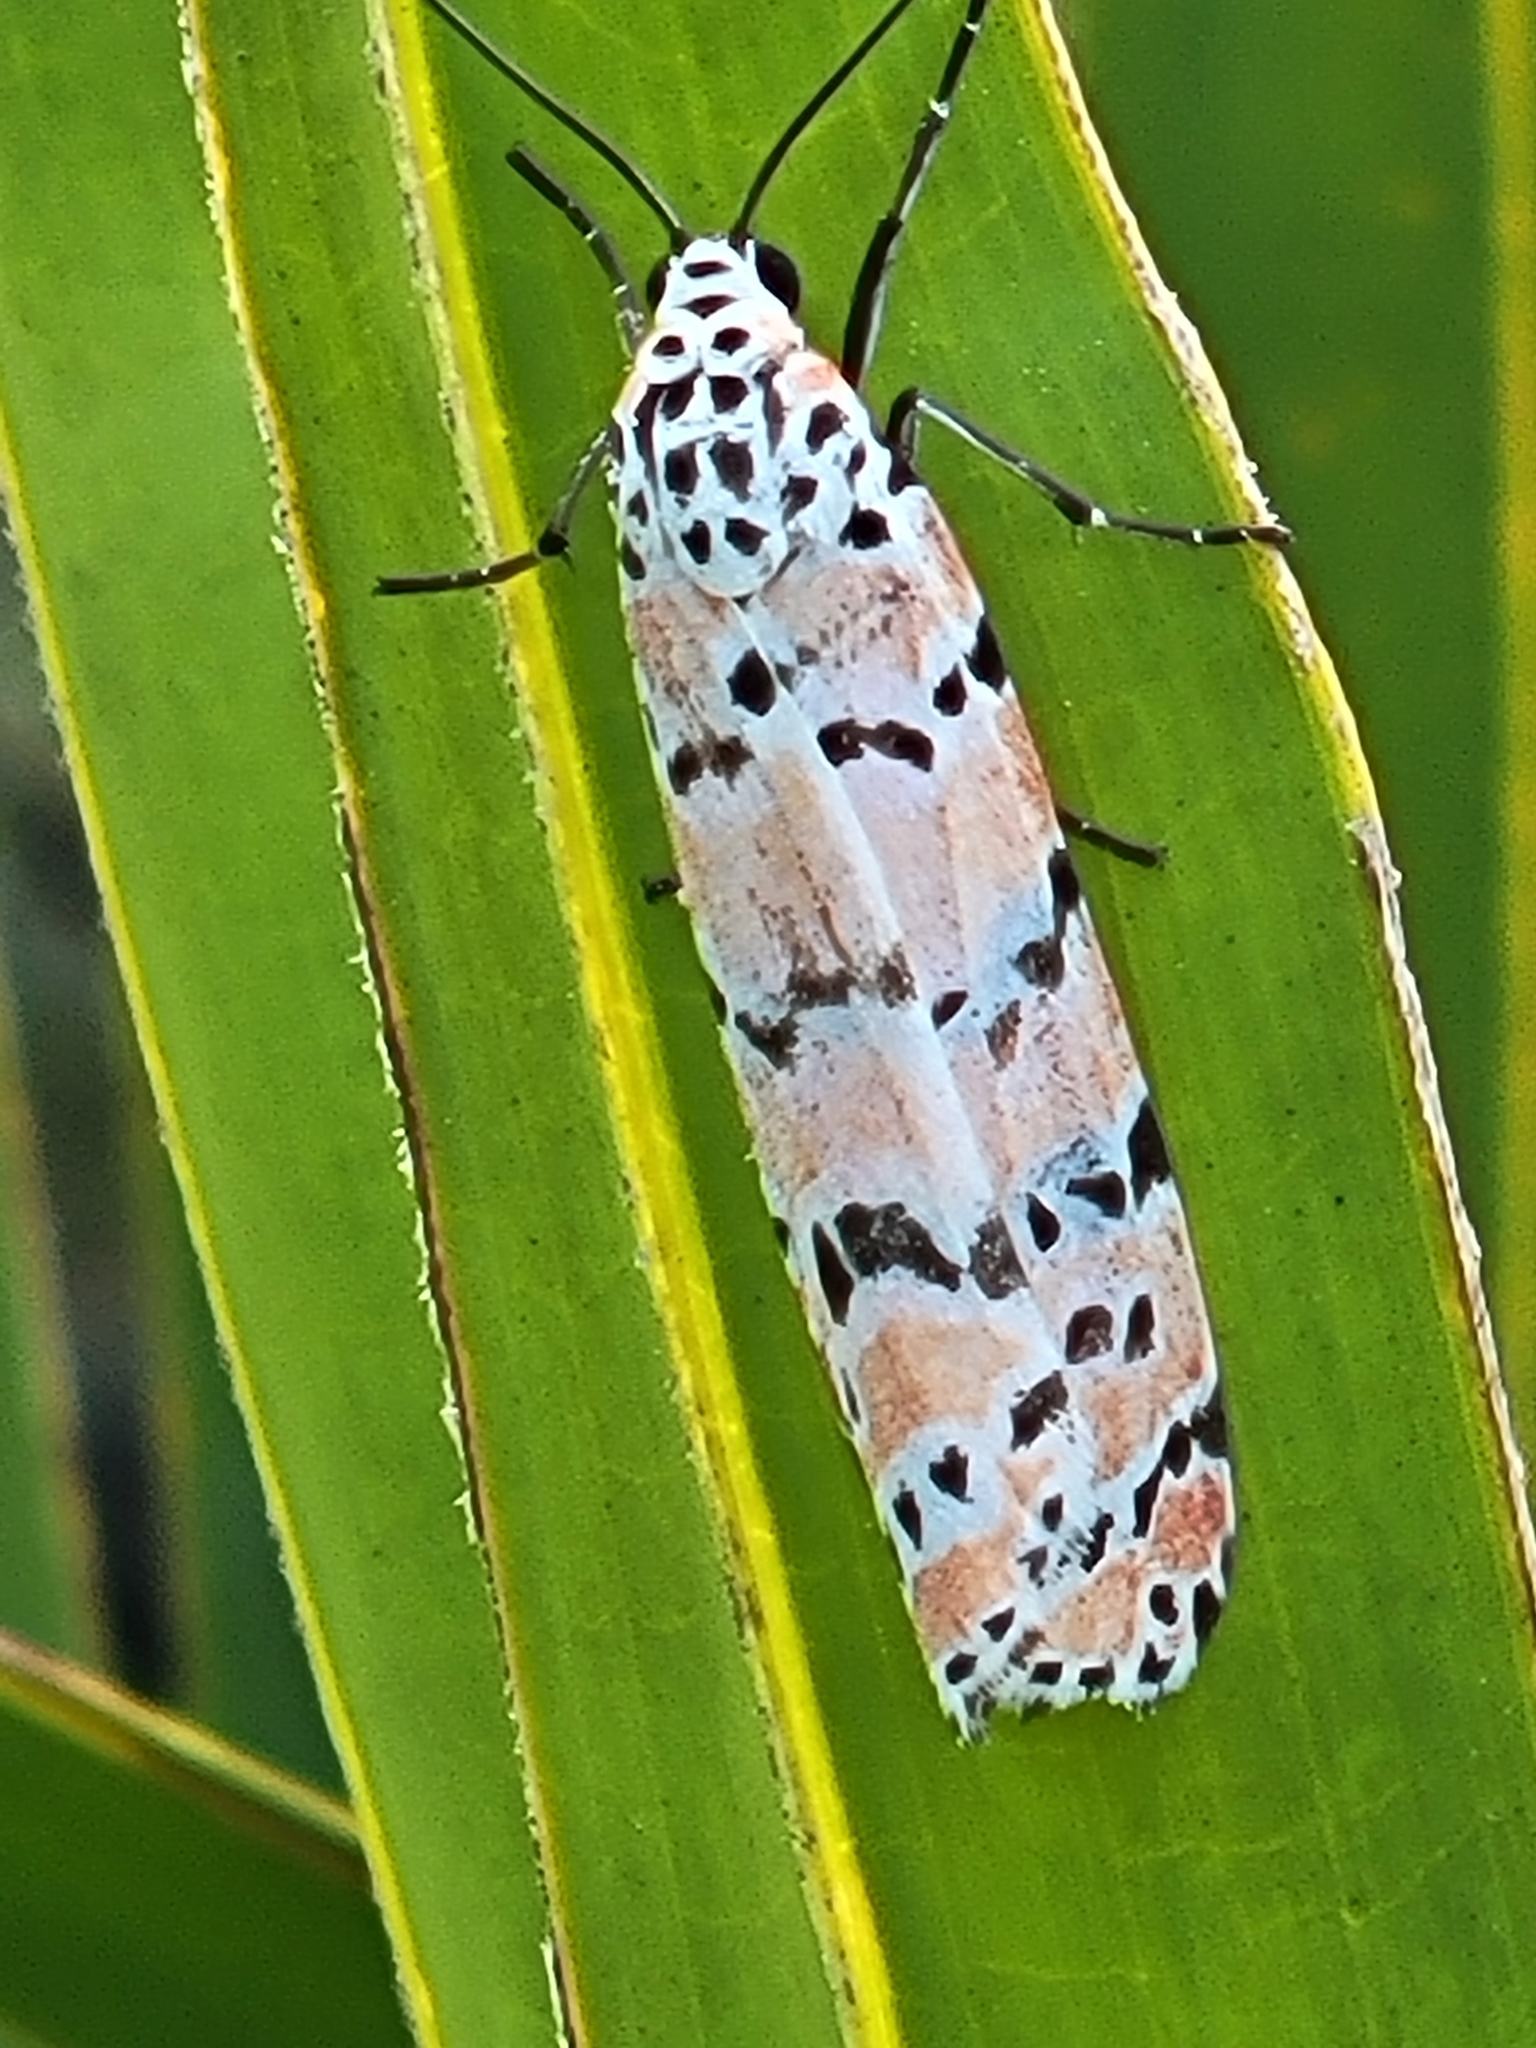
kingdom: Animalia
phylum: Arthropoda
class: Insecta
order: Lepidoptera
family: Erebidae
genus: Utetheisa
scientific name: Utetheisa ornatrix
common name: Beautiful utetheisa
